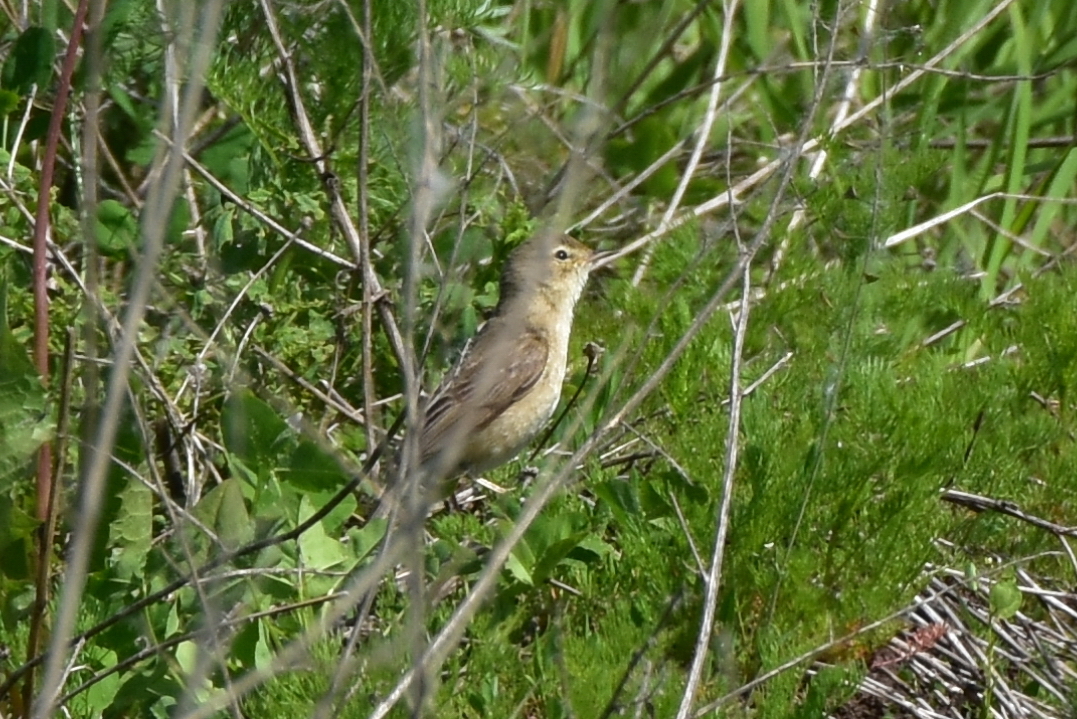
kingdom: Animalia
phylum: Chordata
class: Aves
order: Passeriformes
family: Acrocephalidae
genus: Iduna
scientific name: Iduna caligata
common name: Booted warbler
